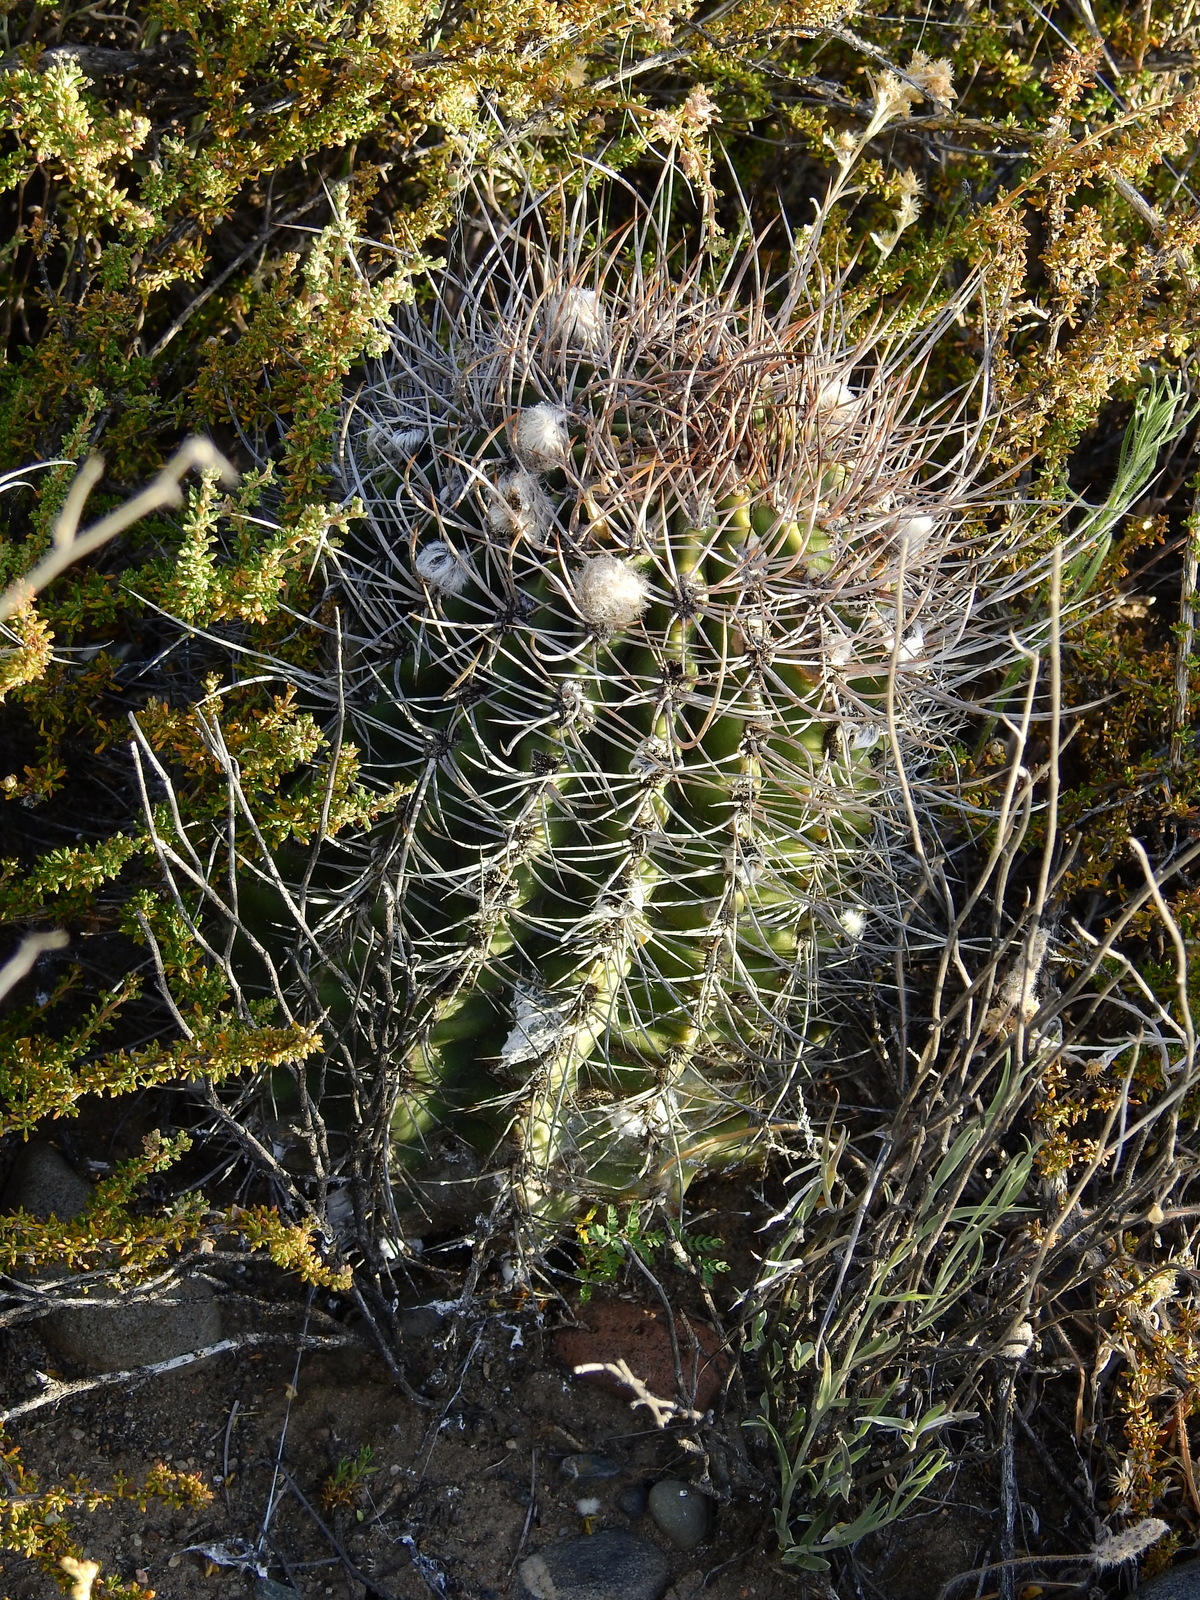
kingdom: Plantae
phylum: Tracheophyta
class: Magnoliopsida
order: Caryophyllales
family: Cactaceae
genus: Acanthocalycium
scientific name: Acanthocalycium leucanthum
